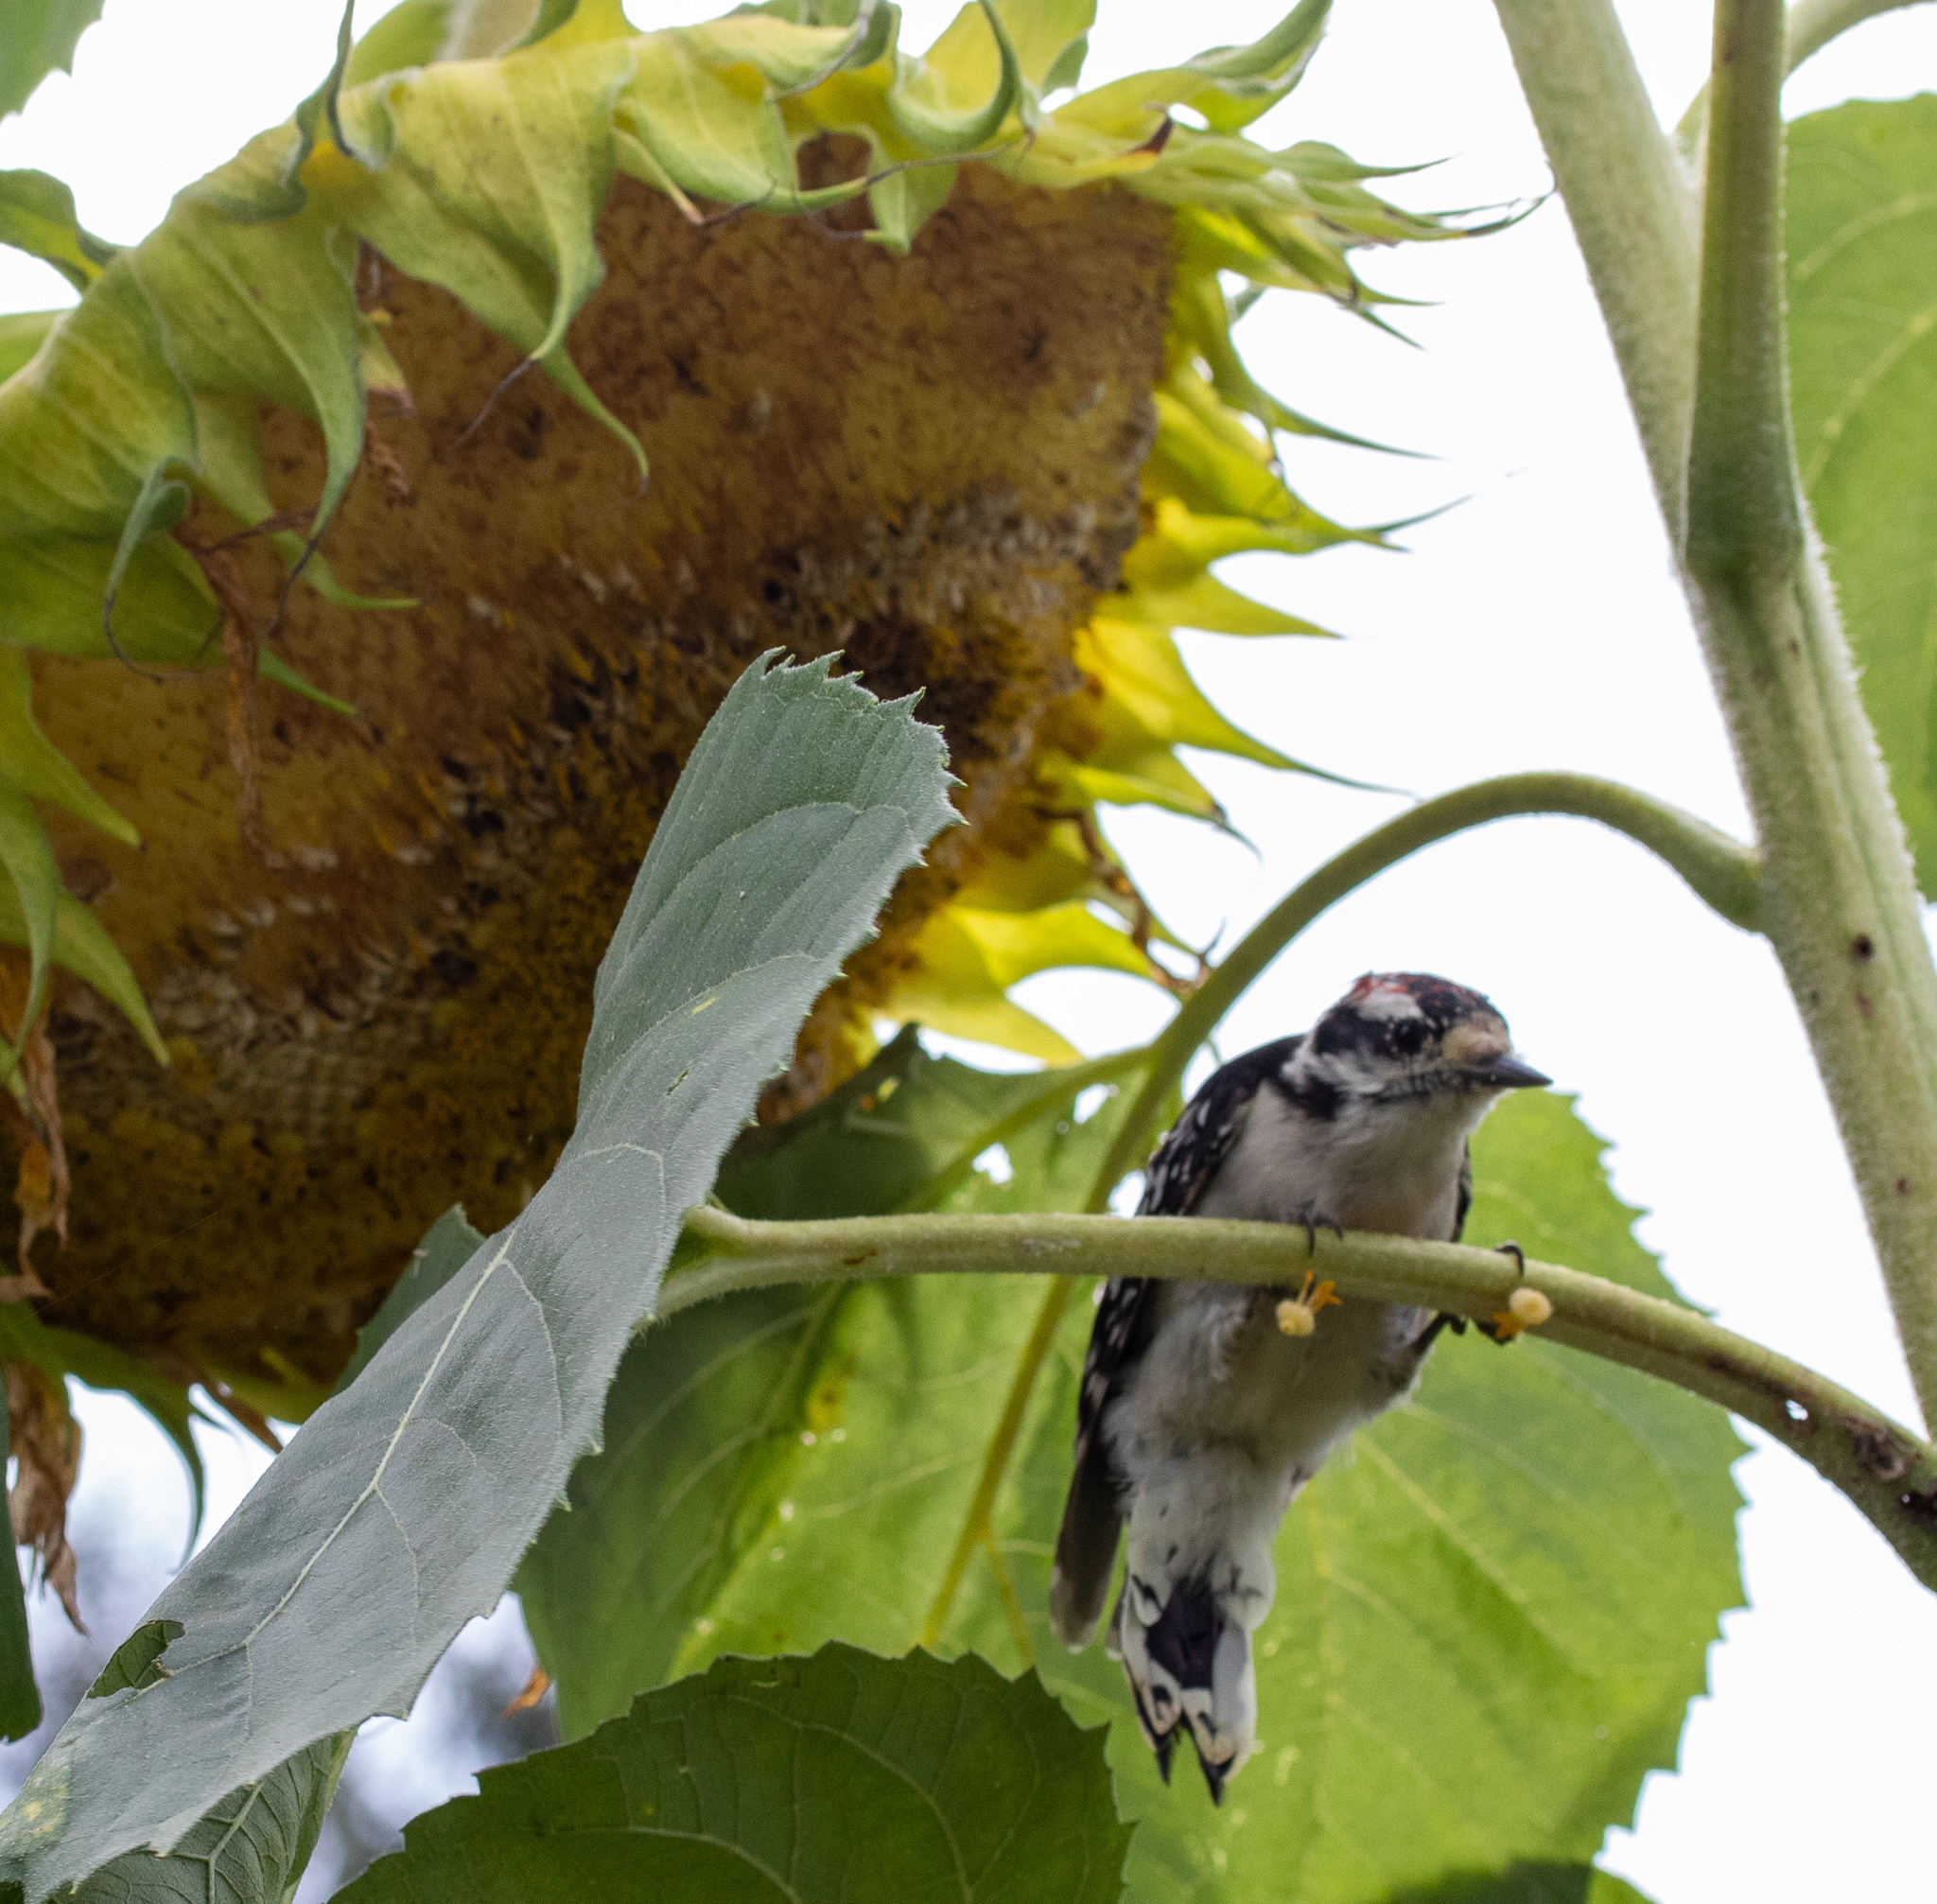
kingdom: Animalia
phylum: Chordata
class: Aves
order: Piciformes
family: Picidae
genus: Dryobates
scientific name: Dryobates pubescens
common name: Downy woodpecker
